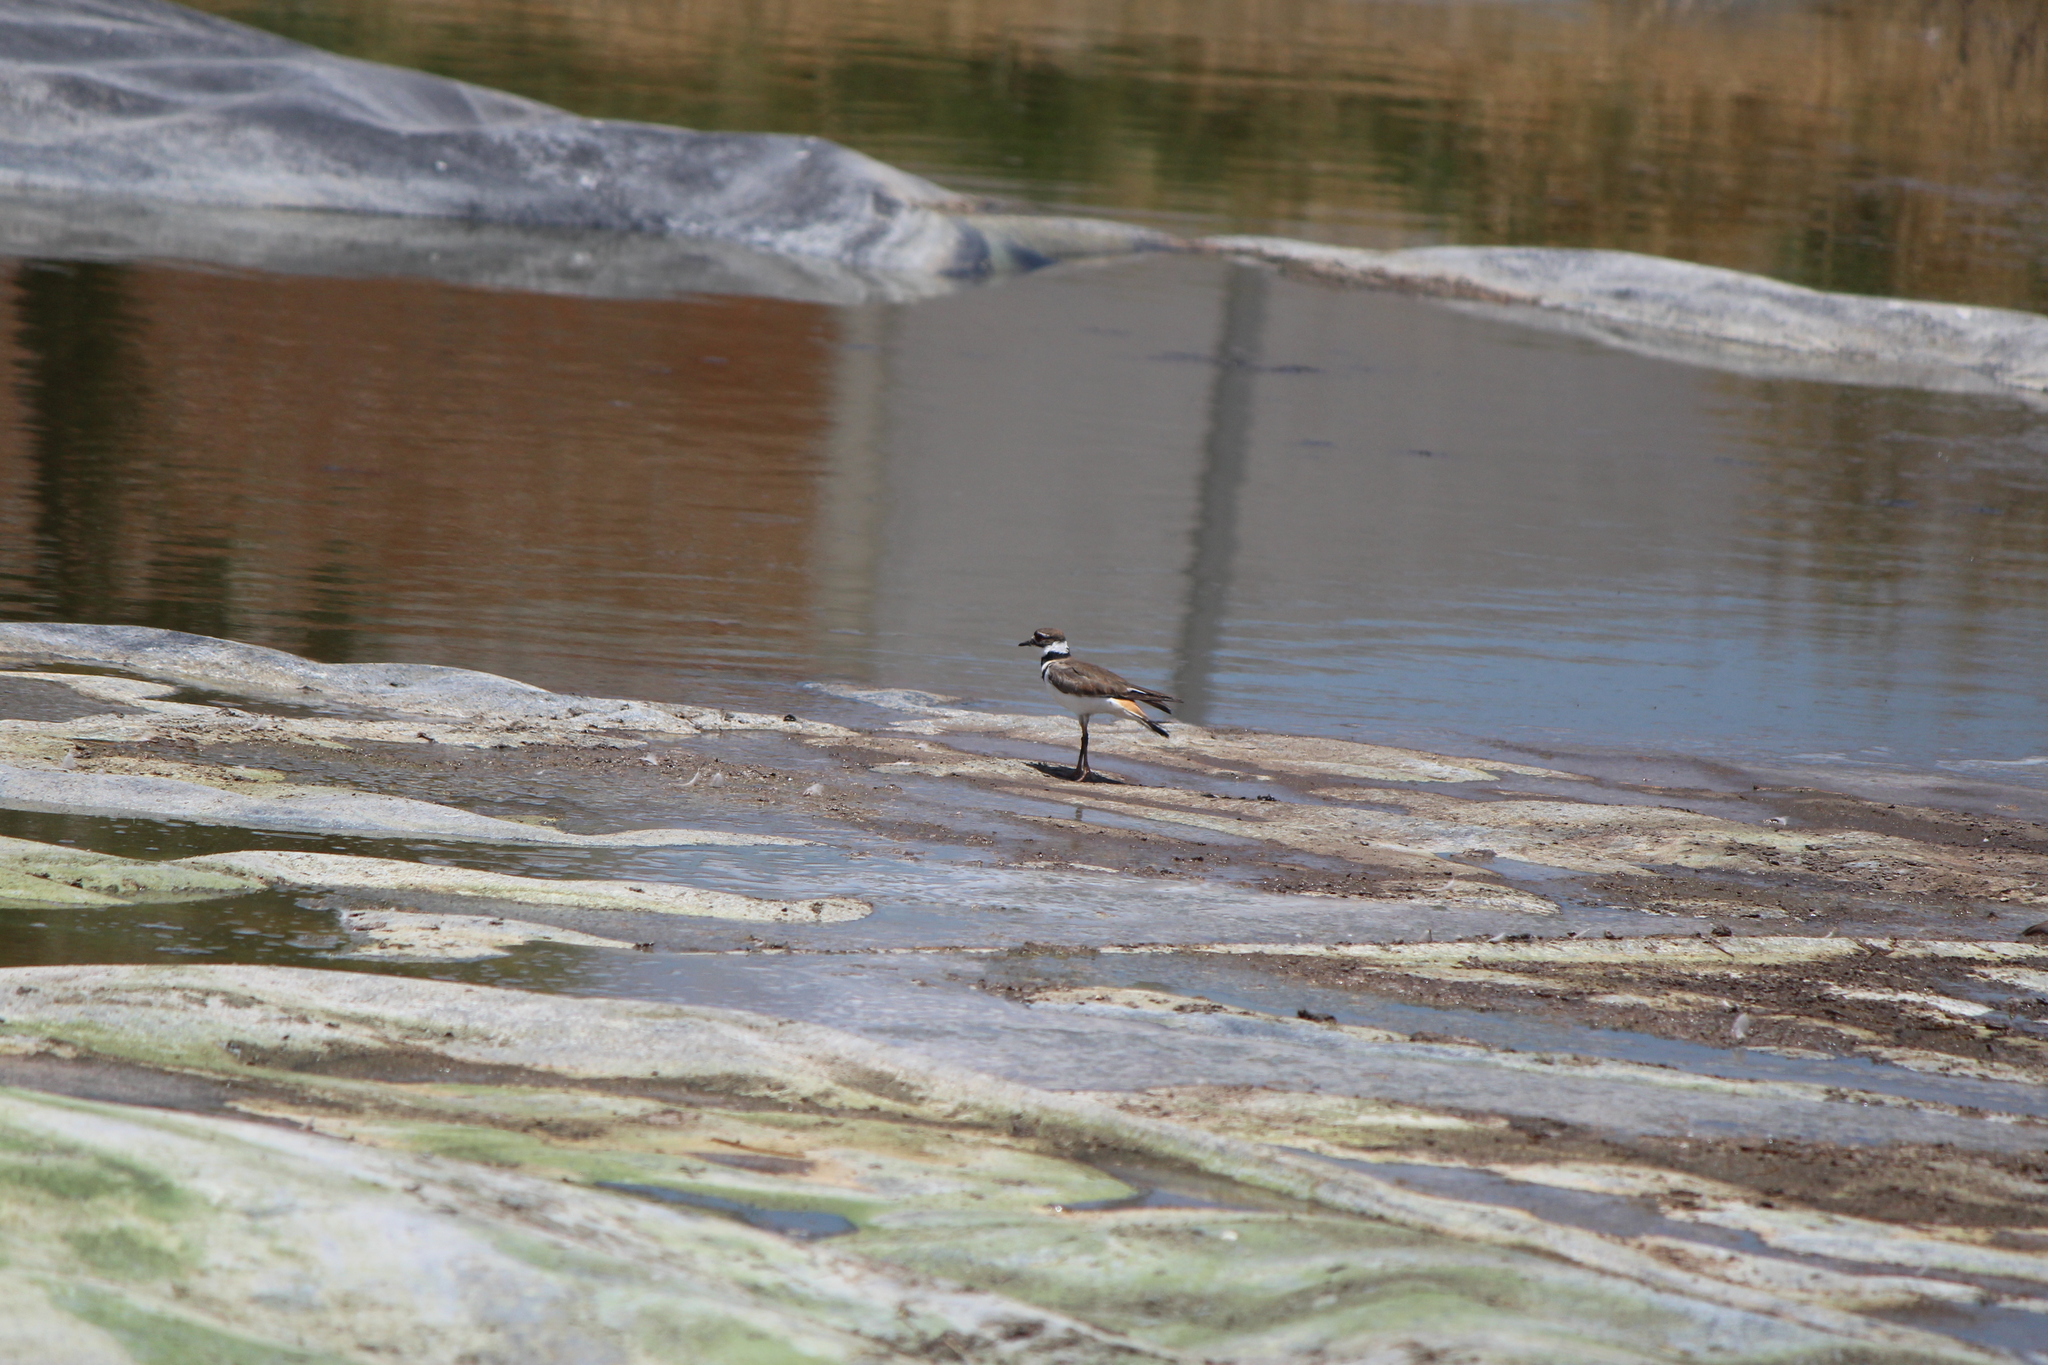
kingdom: Animalia
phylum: Chordata
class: Aves
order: Charadriiformes
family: Charadriidae
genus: Charadrius
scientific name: Charadrius vociferus
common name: Killdeer
